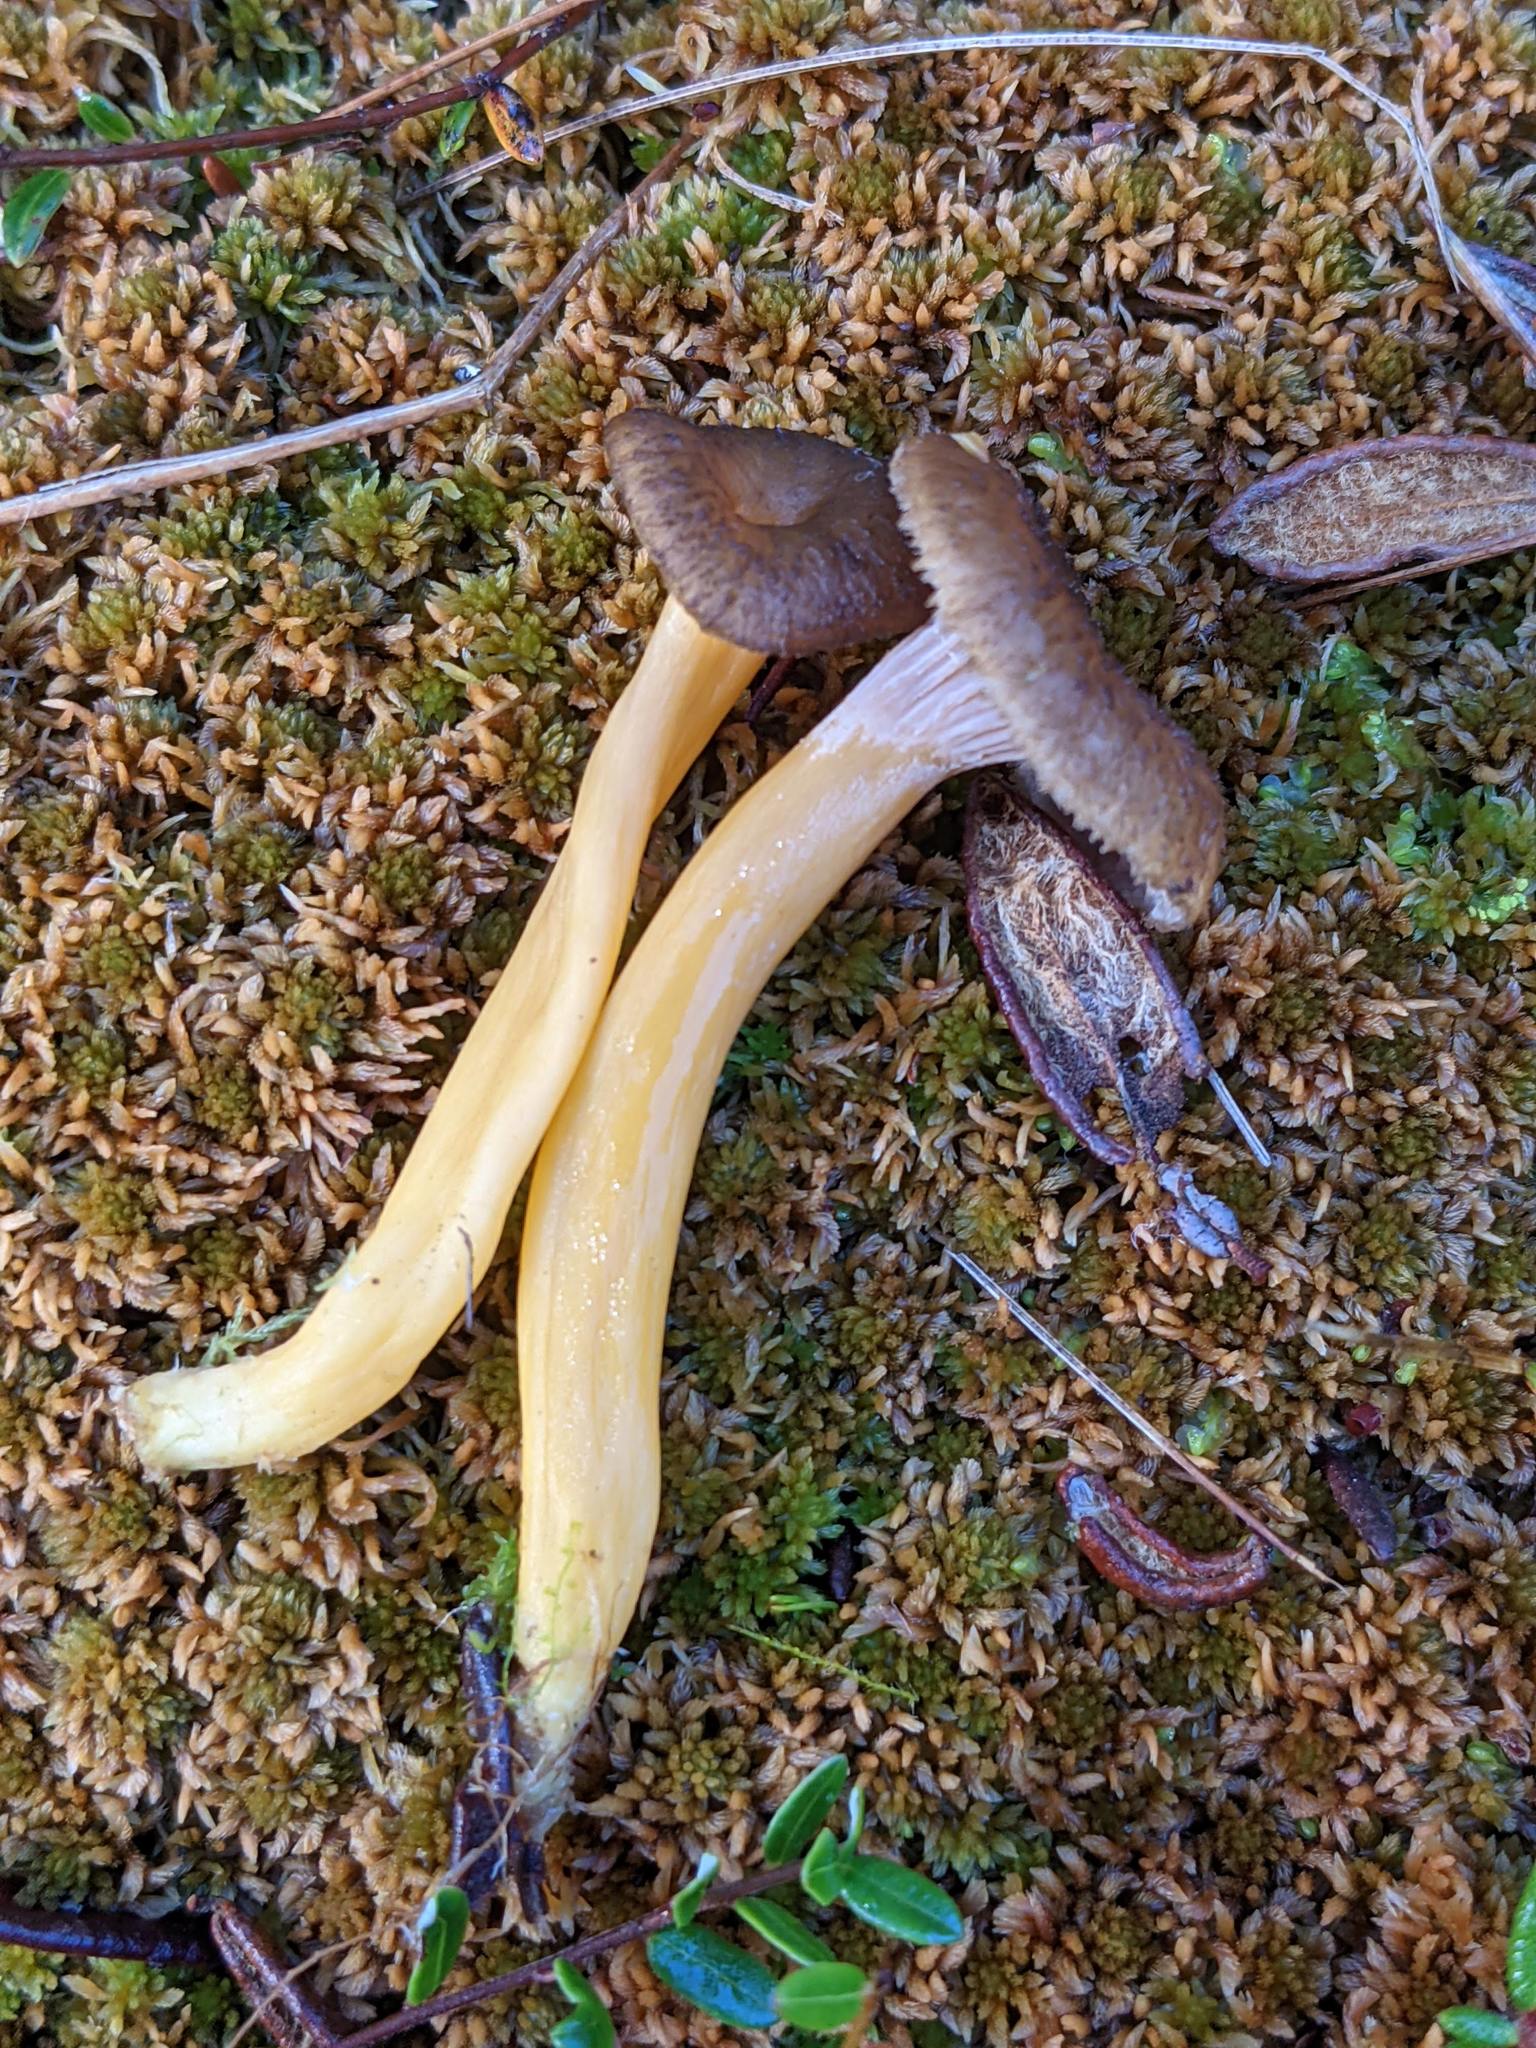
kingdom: Fungi
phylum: Basidiomycota
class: Agaricomycetes
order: Cantharellales
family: Hydnaceae
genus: Craterellus
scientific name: Craterellus tubaeformis
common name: Yellowfoot
